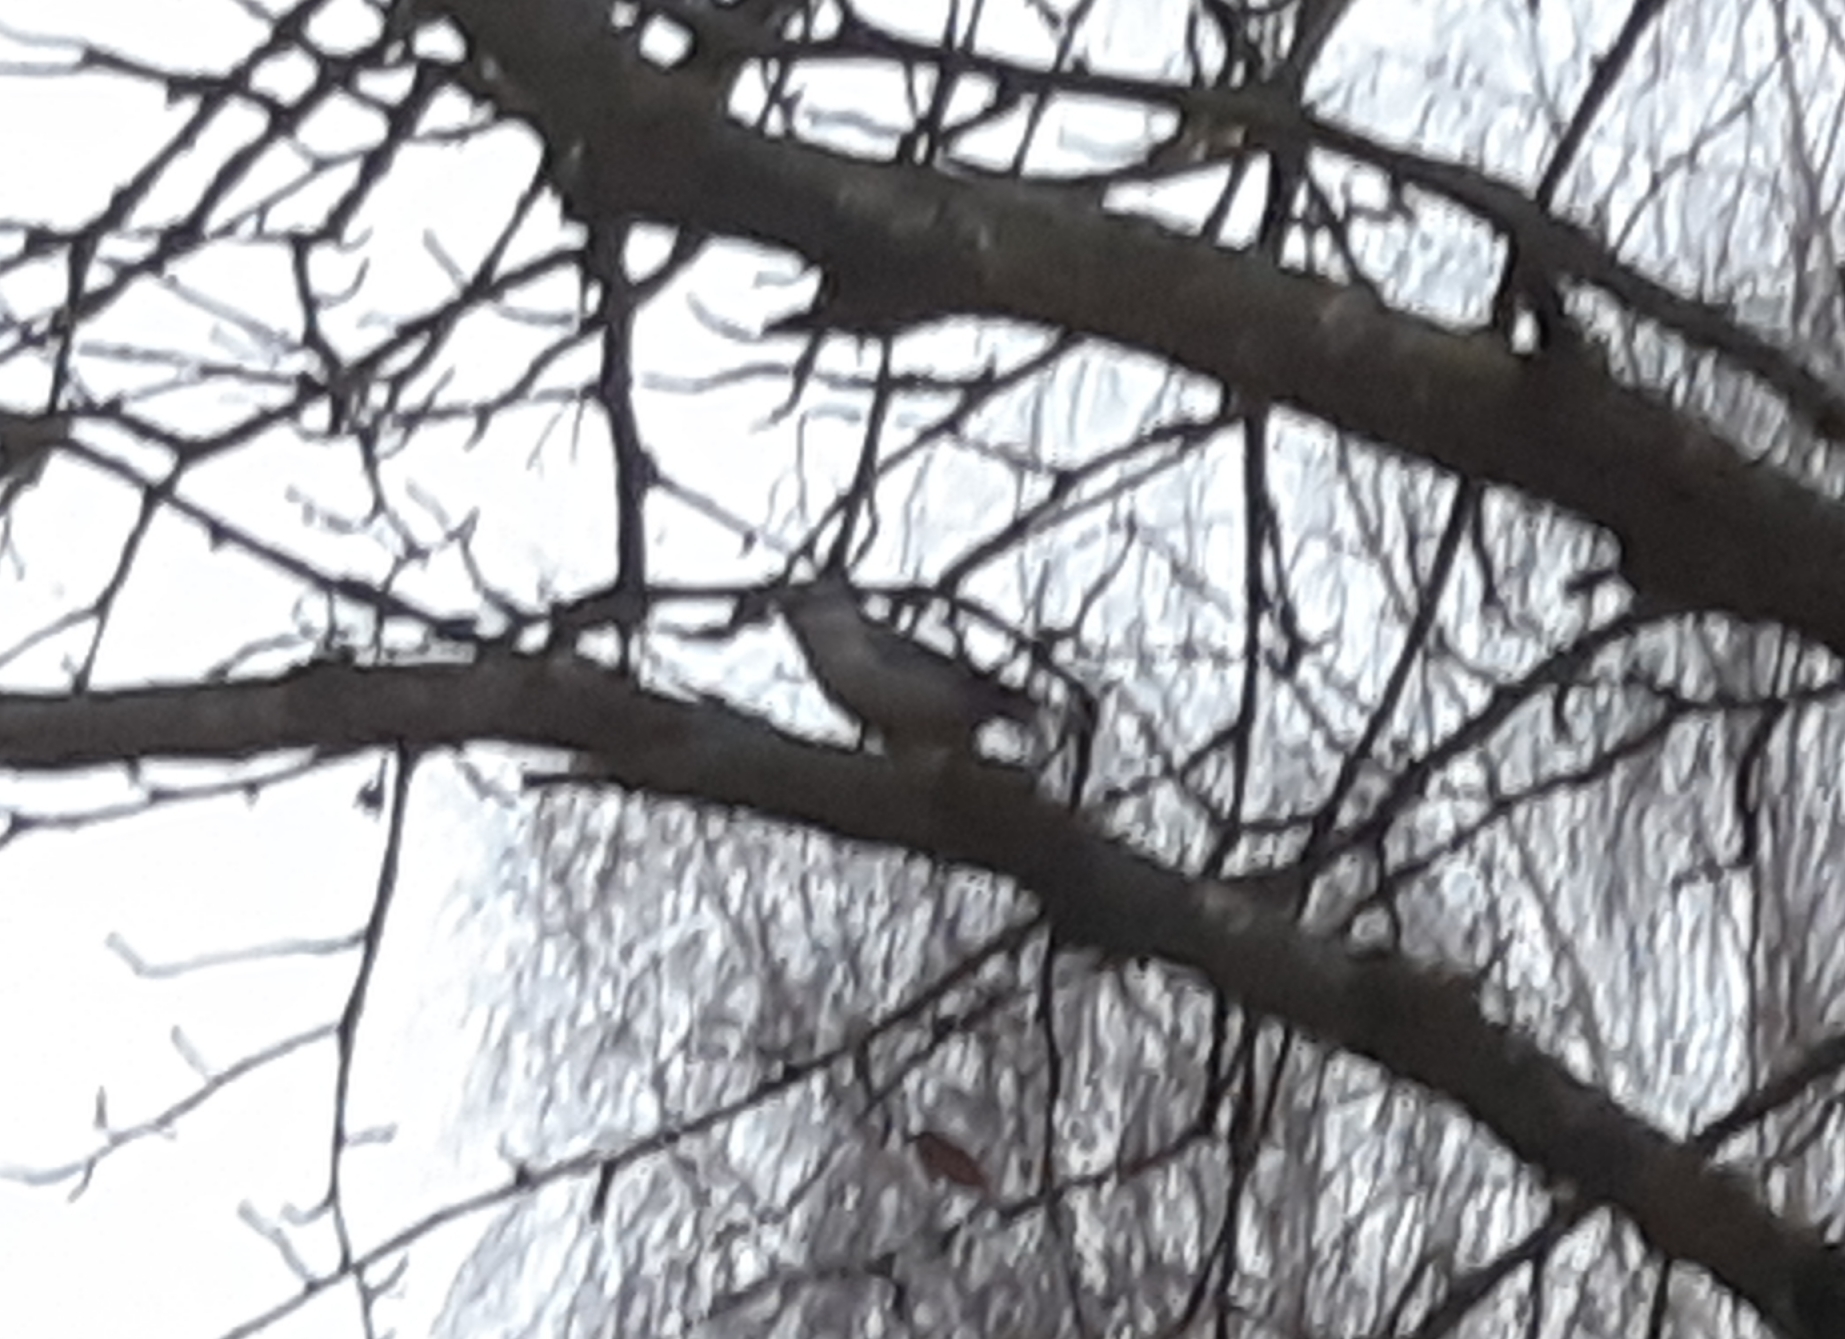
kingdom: Animalia
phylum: Chordata
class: Aves
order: Passeriformes
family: Sittidae
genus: Sitta
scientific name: Sitta europaea
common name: Eurasian nuthatch
